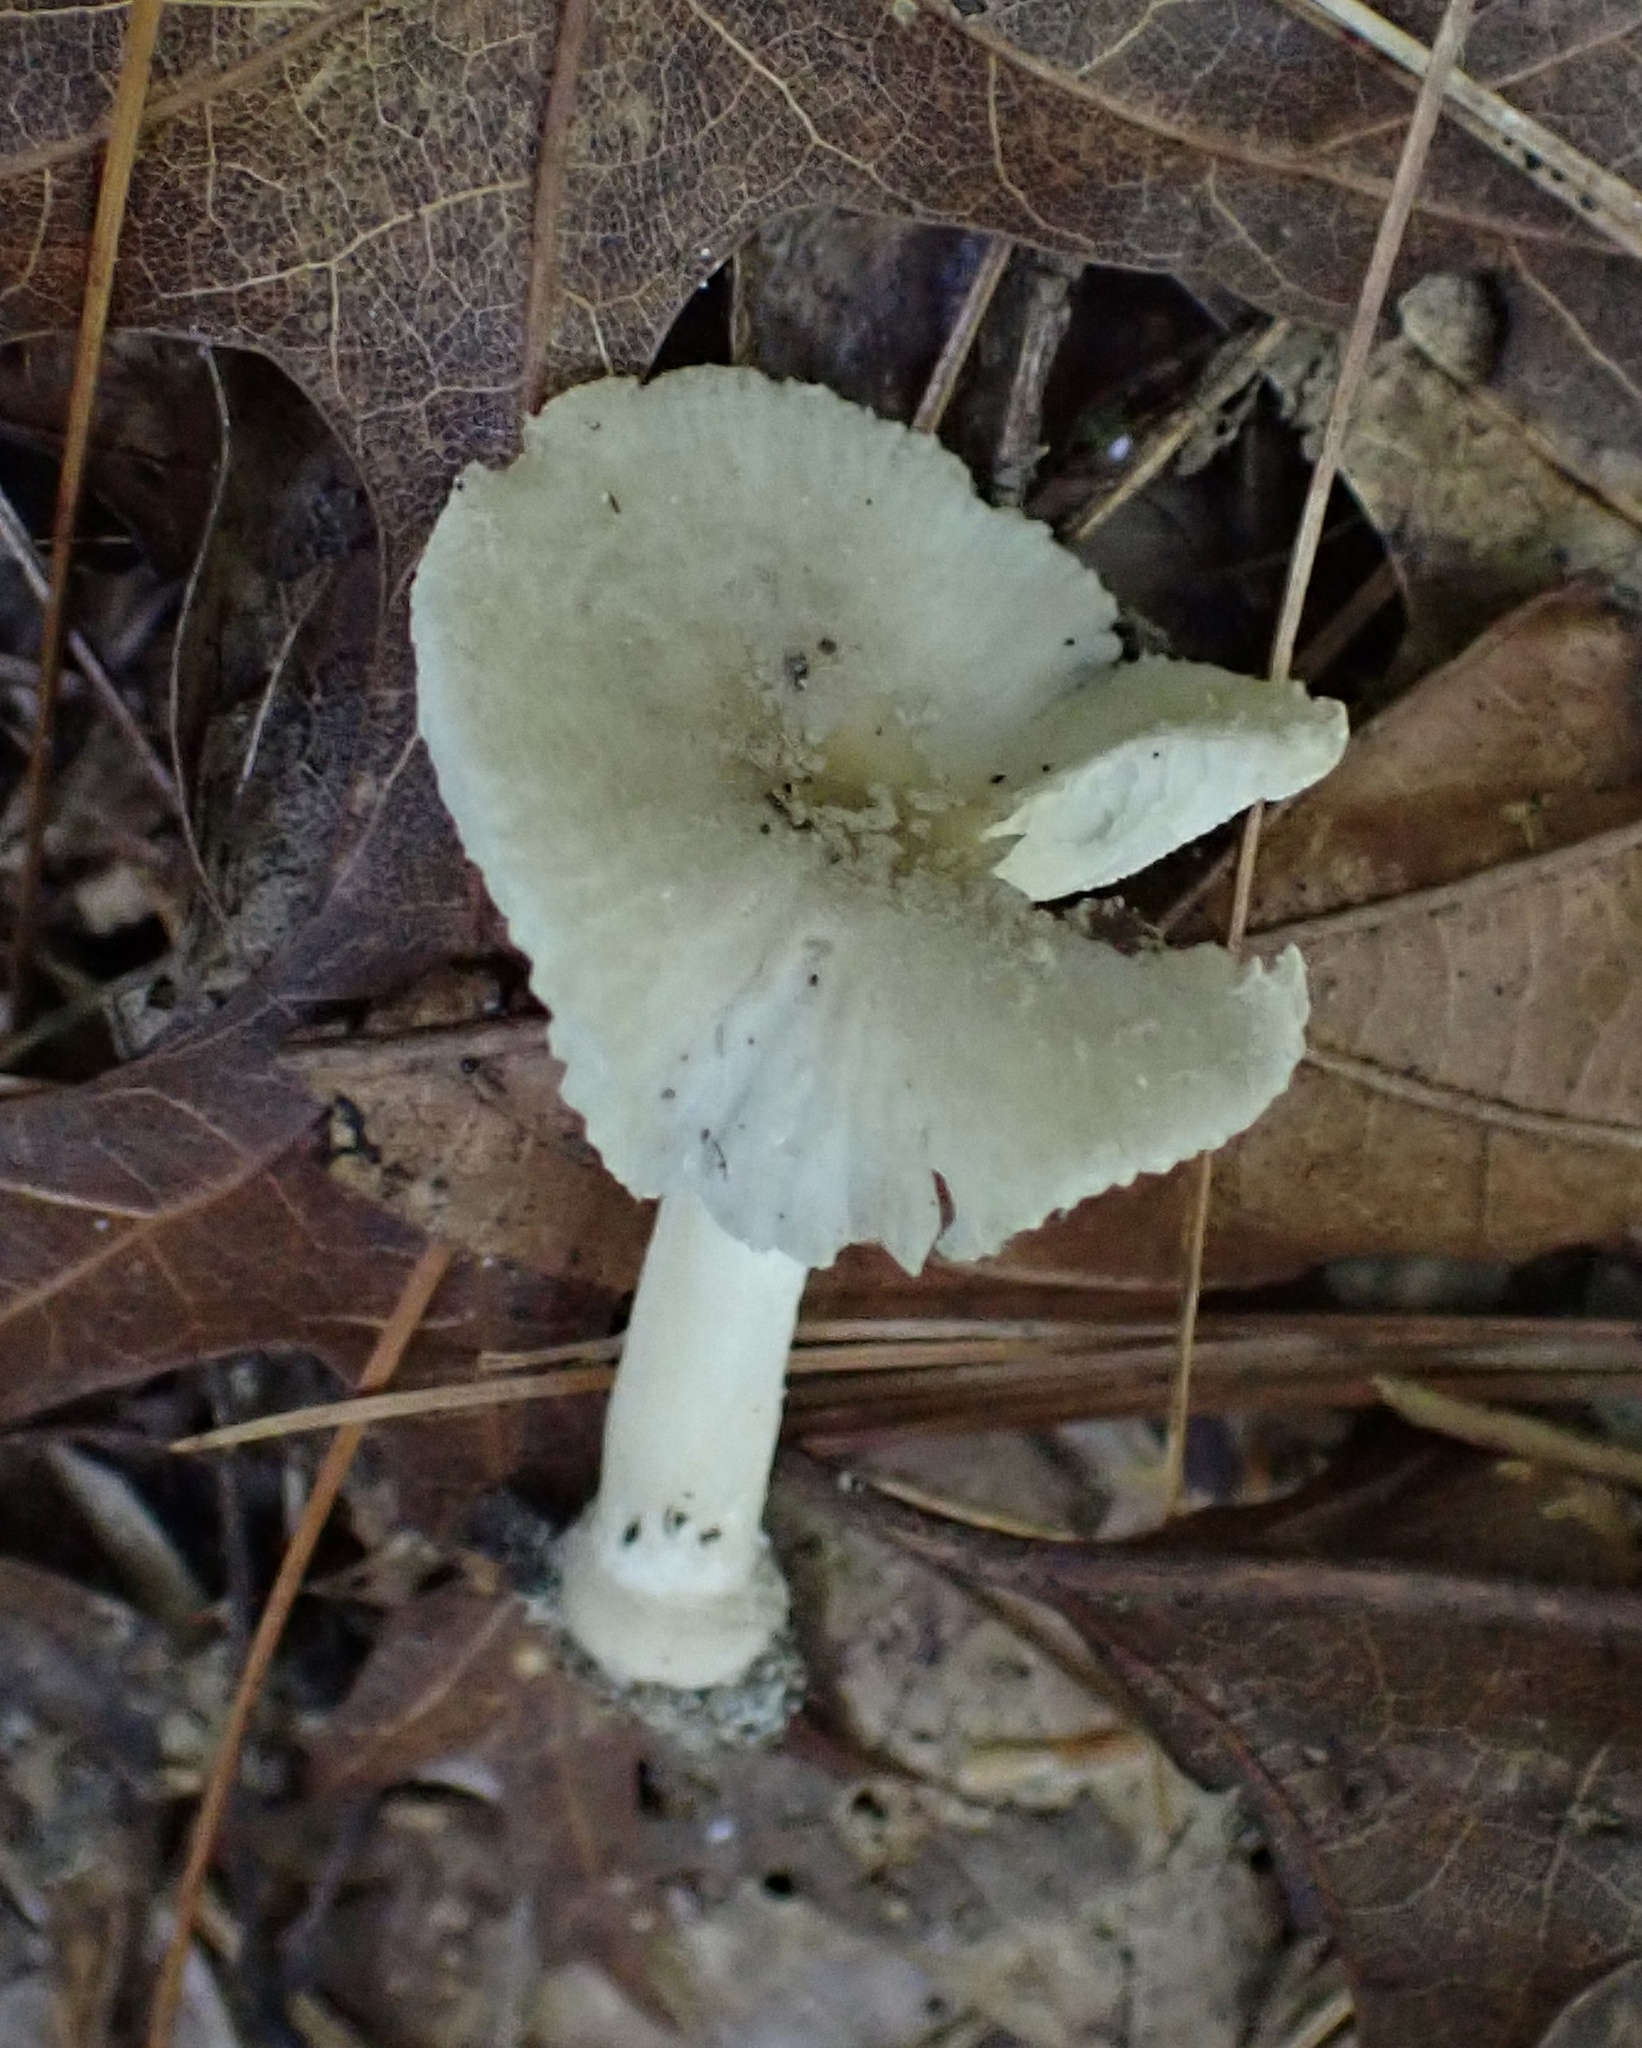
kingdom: Fungi
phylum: Basidiomycota
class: Agaricomycetes
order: Agaricales
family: Amanitaceae
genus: Amanita
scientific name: Amanita farinosa
